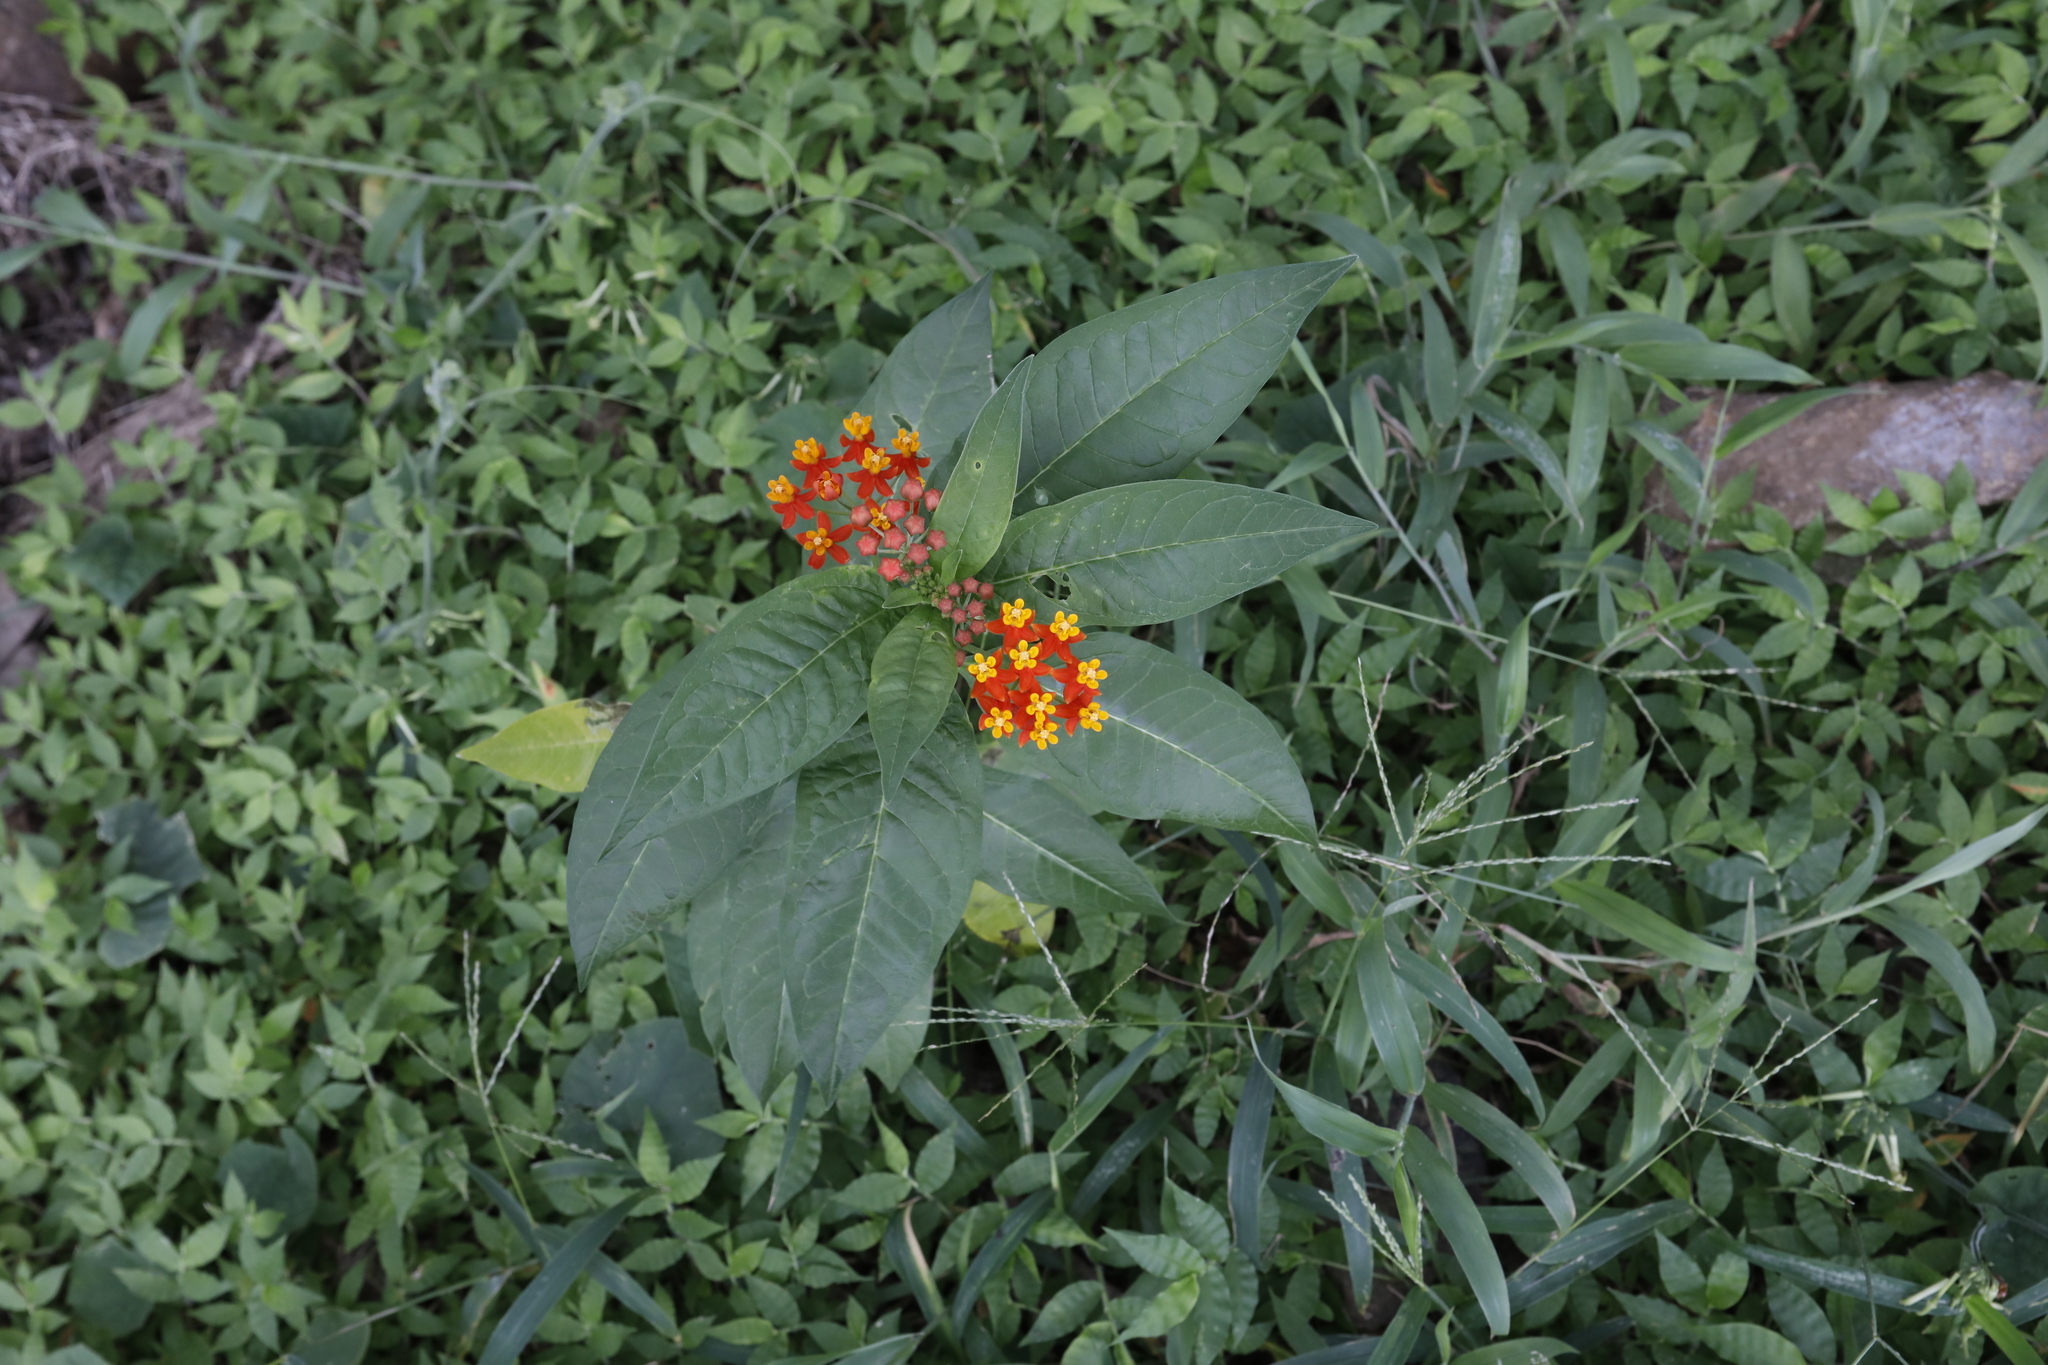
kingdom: Plantae
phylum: Tracheophyta
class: Magnoliopsida
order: Gentianales
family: Apocynaceae
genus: Asclepias
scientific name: Asclepias curassavica
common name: Bloodflower
